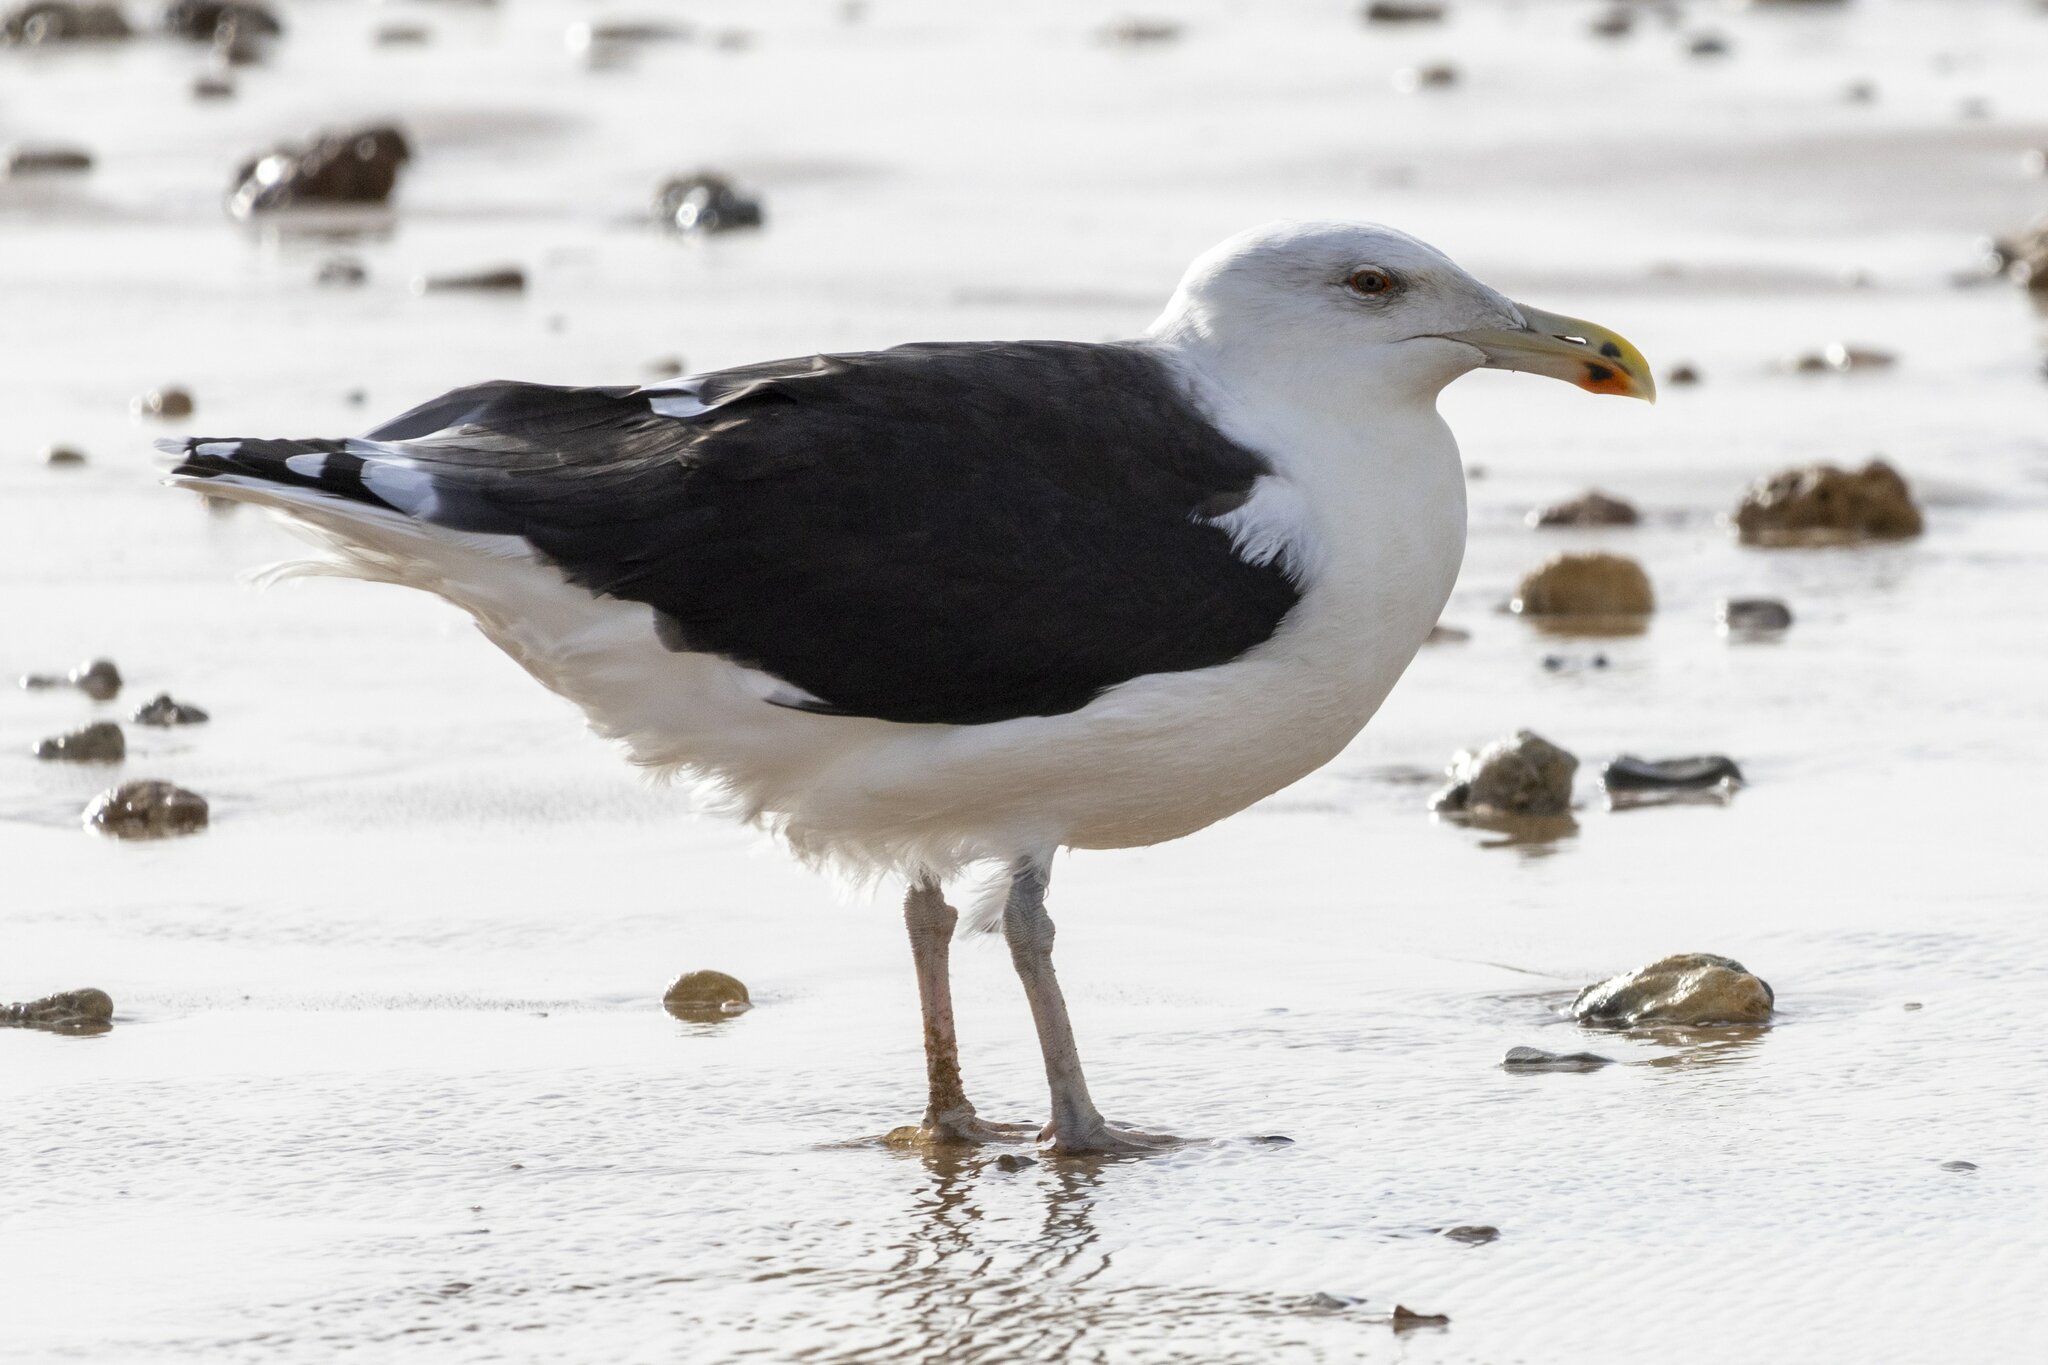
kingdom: Animalia
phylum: Chordata
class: Aves
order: Charadriiformes
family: Laridae
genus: Larus
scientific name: Larus marinus
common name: Great black-backed gull
